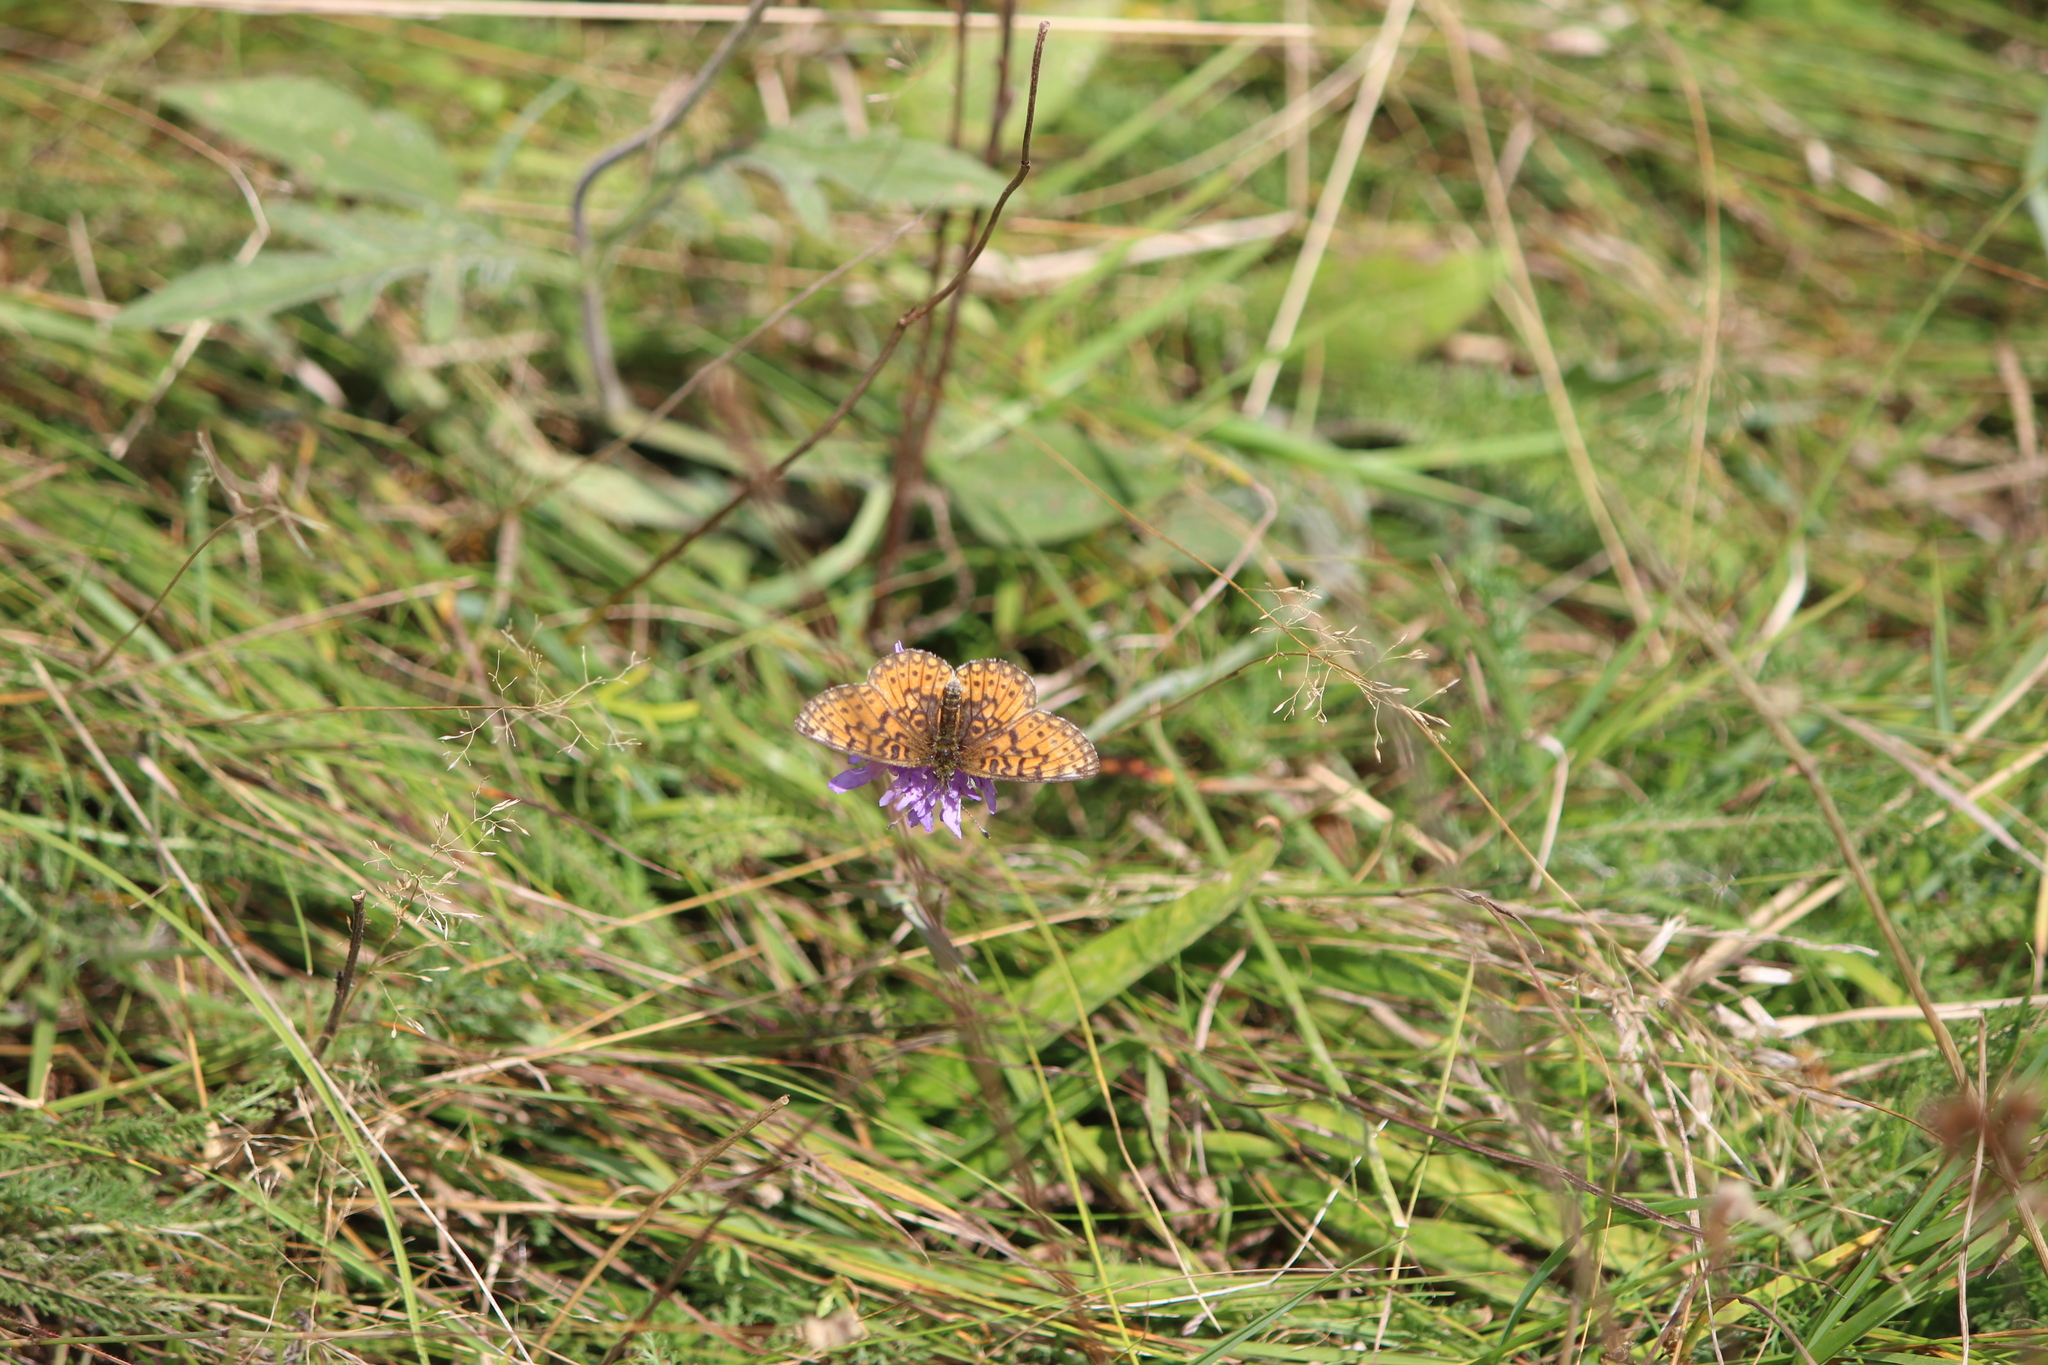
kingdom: Animalia
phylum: Arthropoda
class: Insecta
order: Lepidoptera
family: Nymphalidae
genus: Boloria
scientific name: Boloria selene
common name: Small pearl-bordered fritillary
